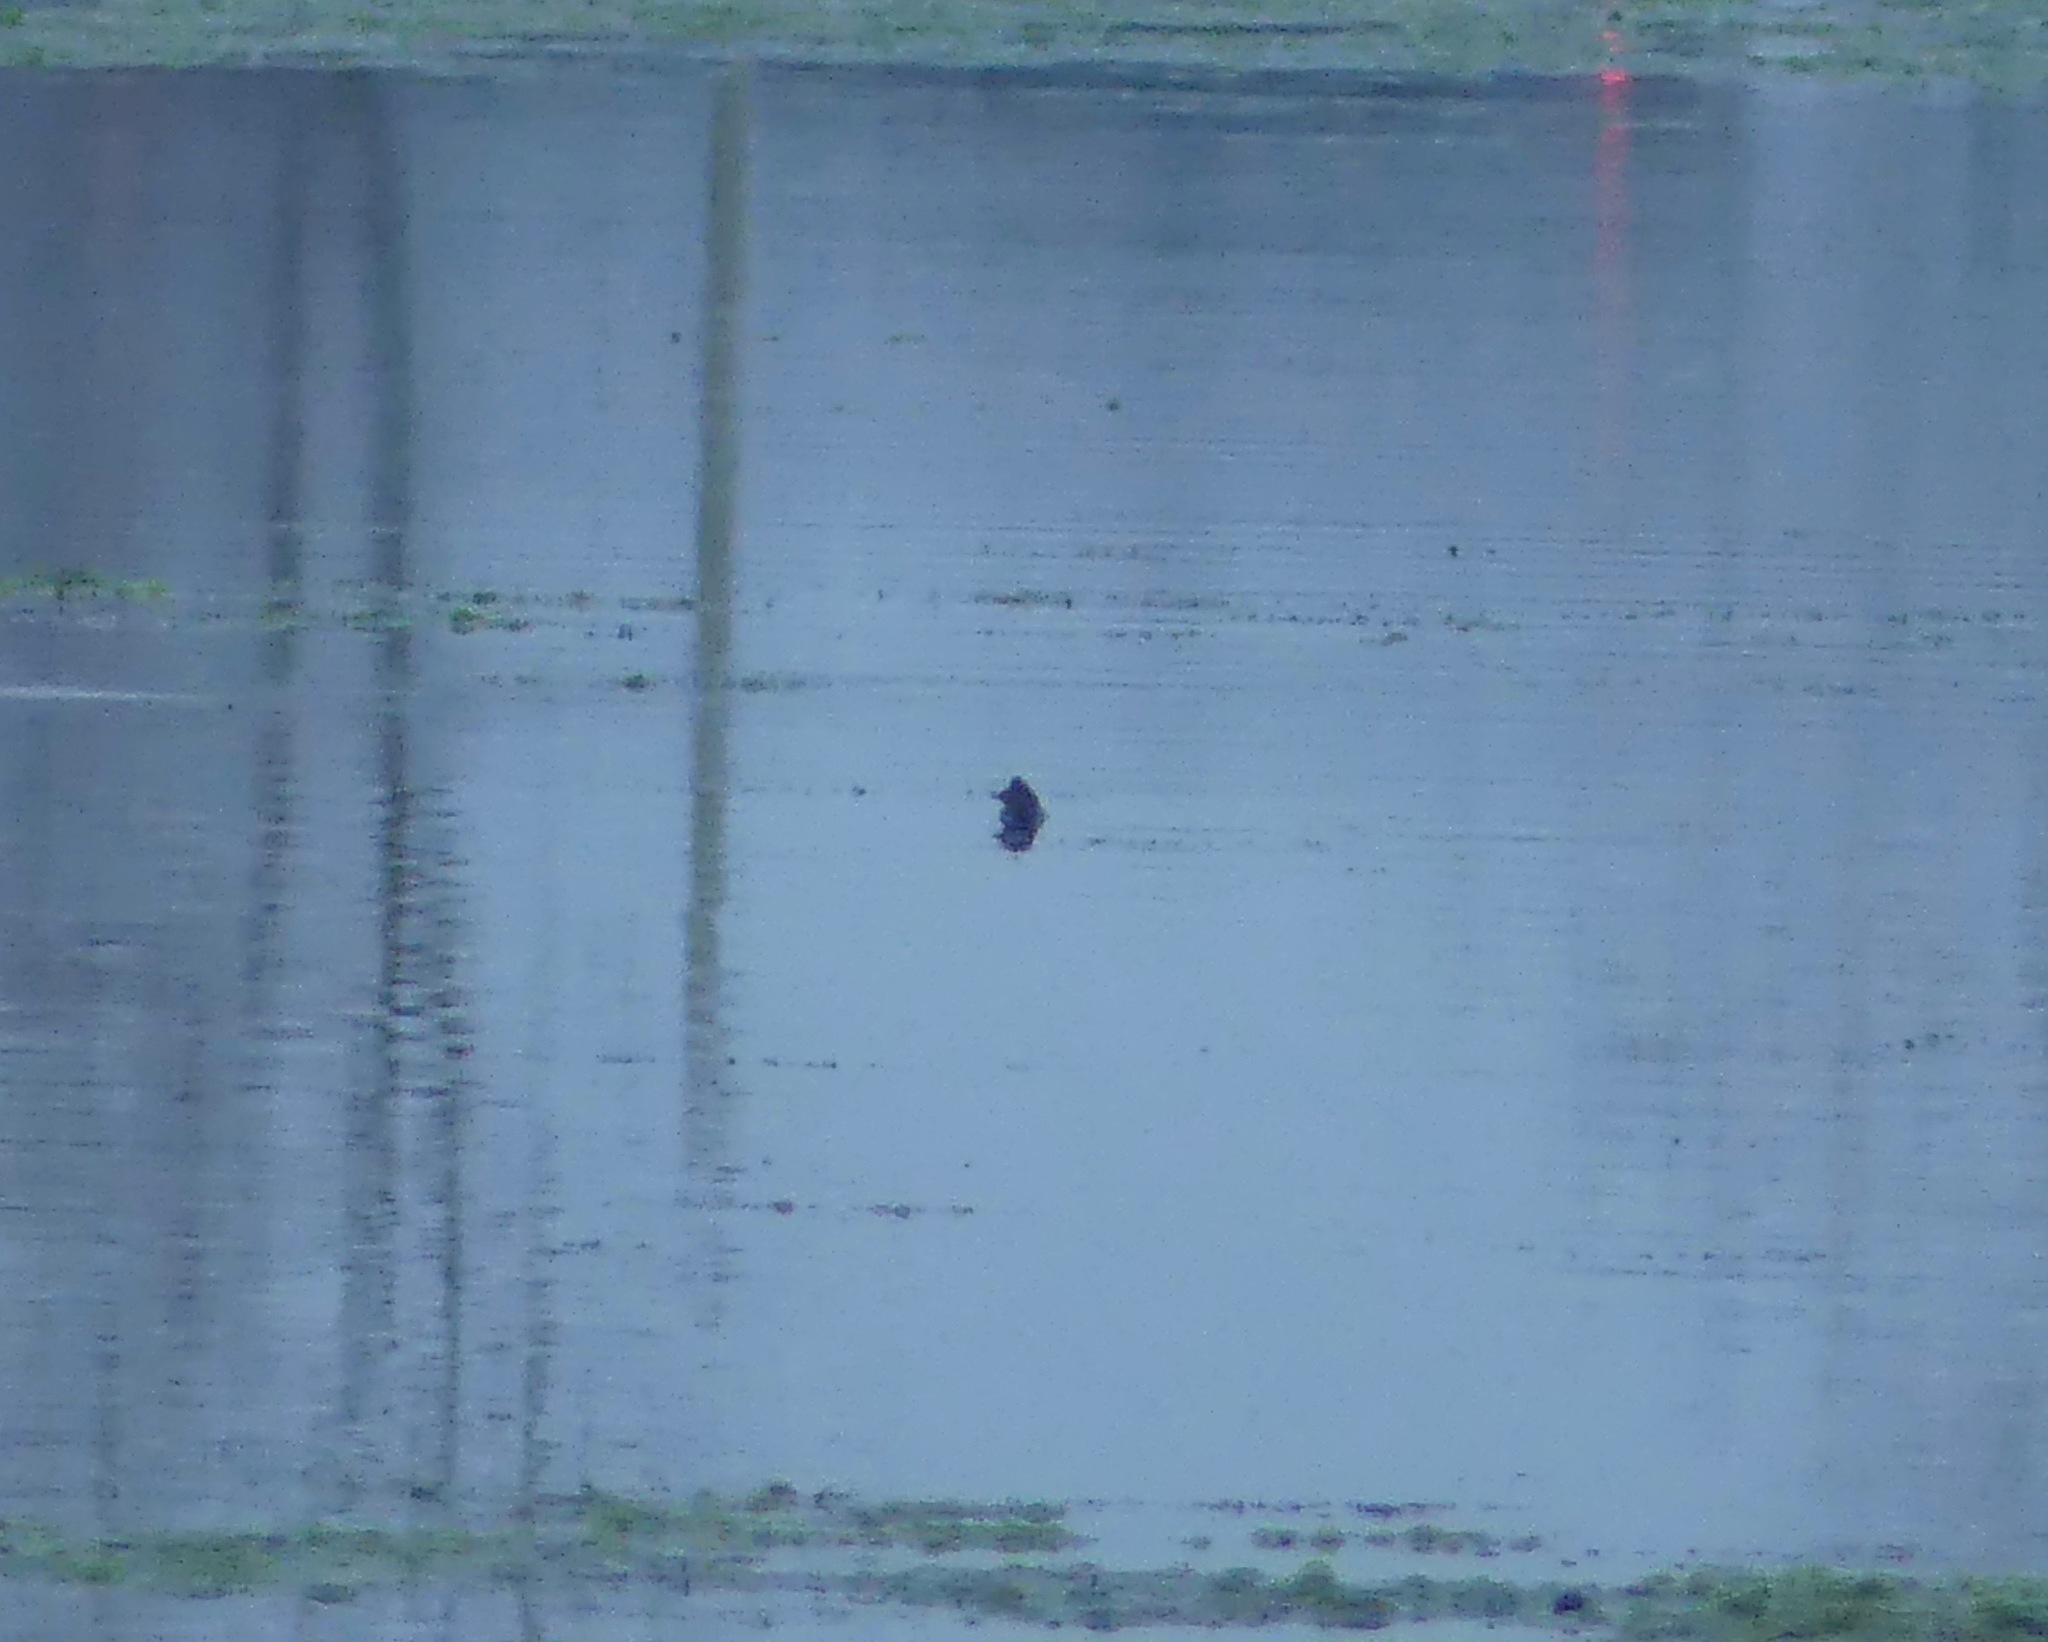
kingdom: Animalia
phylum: Chordata
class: Testudines
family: Chelydridae
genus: Macrochelys
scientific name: Macrochelys temminckii
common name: Alligator snapping turtle
